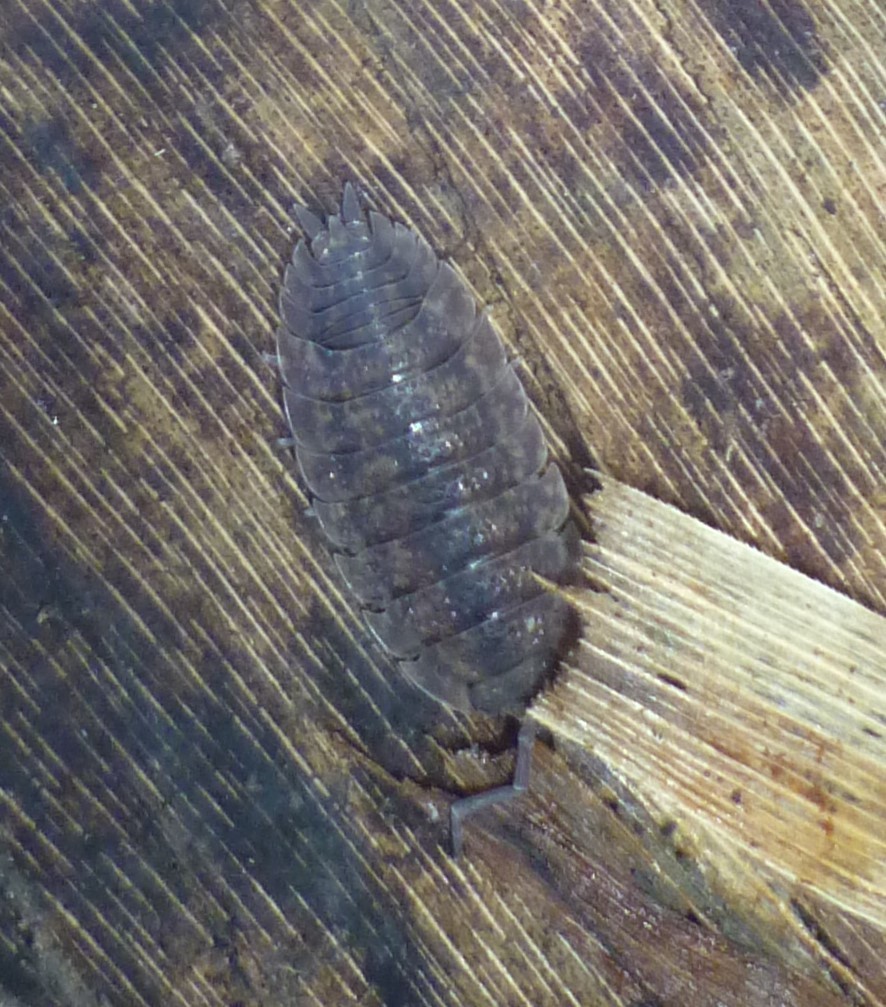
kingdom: Animalia
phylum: Arthropoda
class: Malacostraca
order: Isopoda
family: Porcellionidae
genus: Porcellio
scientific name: Porcellio scaber
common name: Common rough woodlouse
